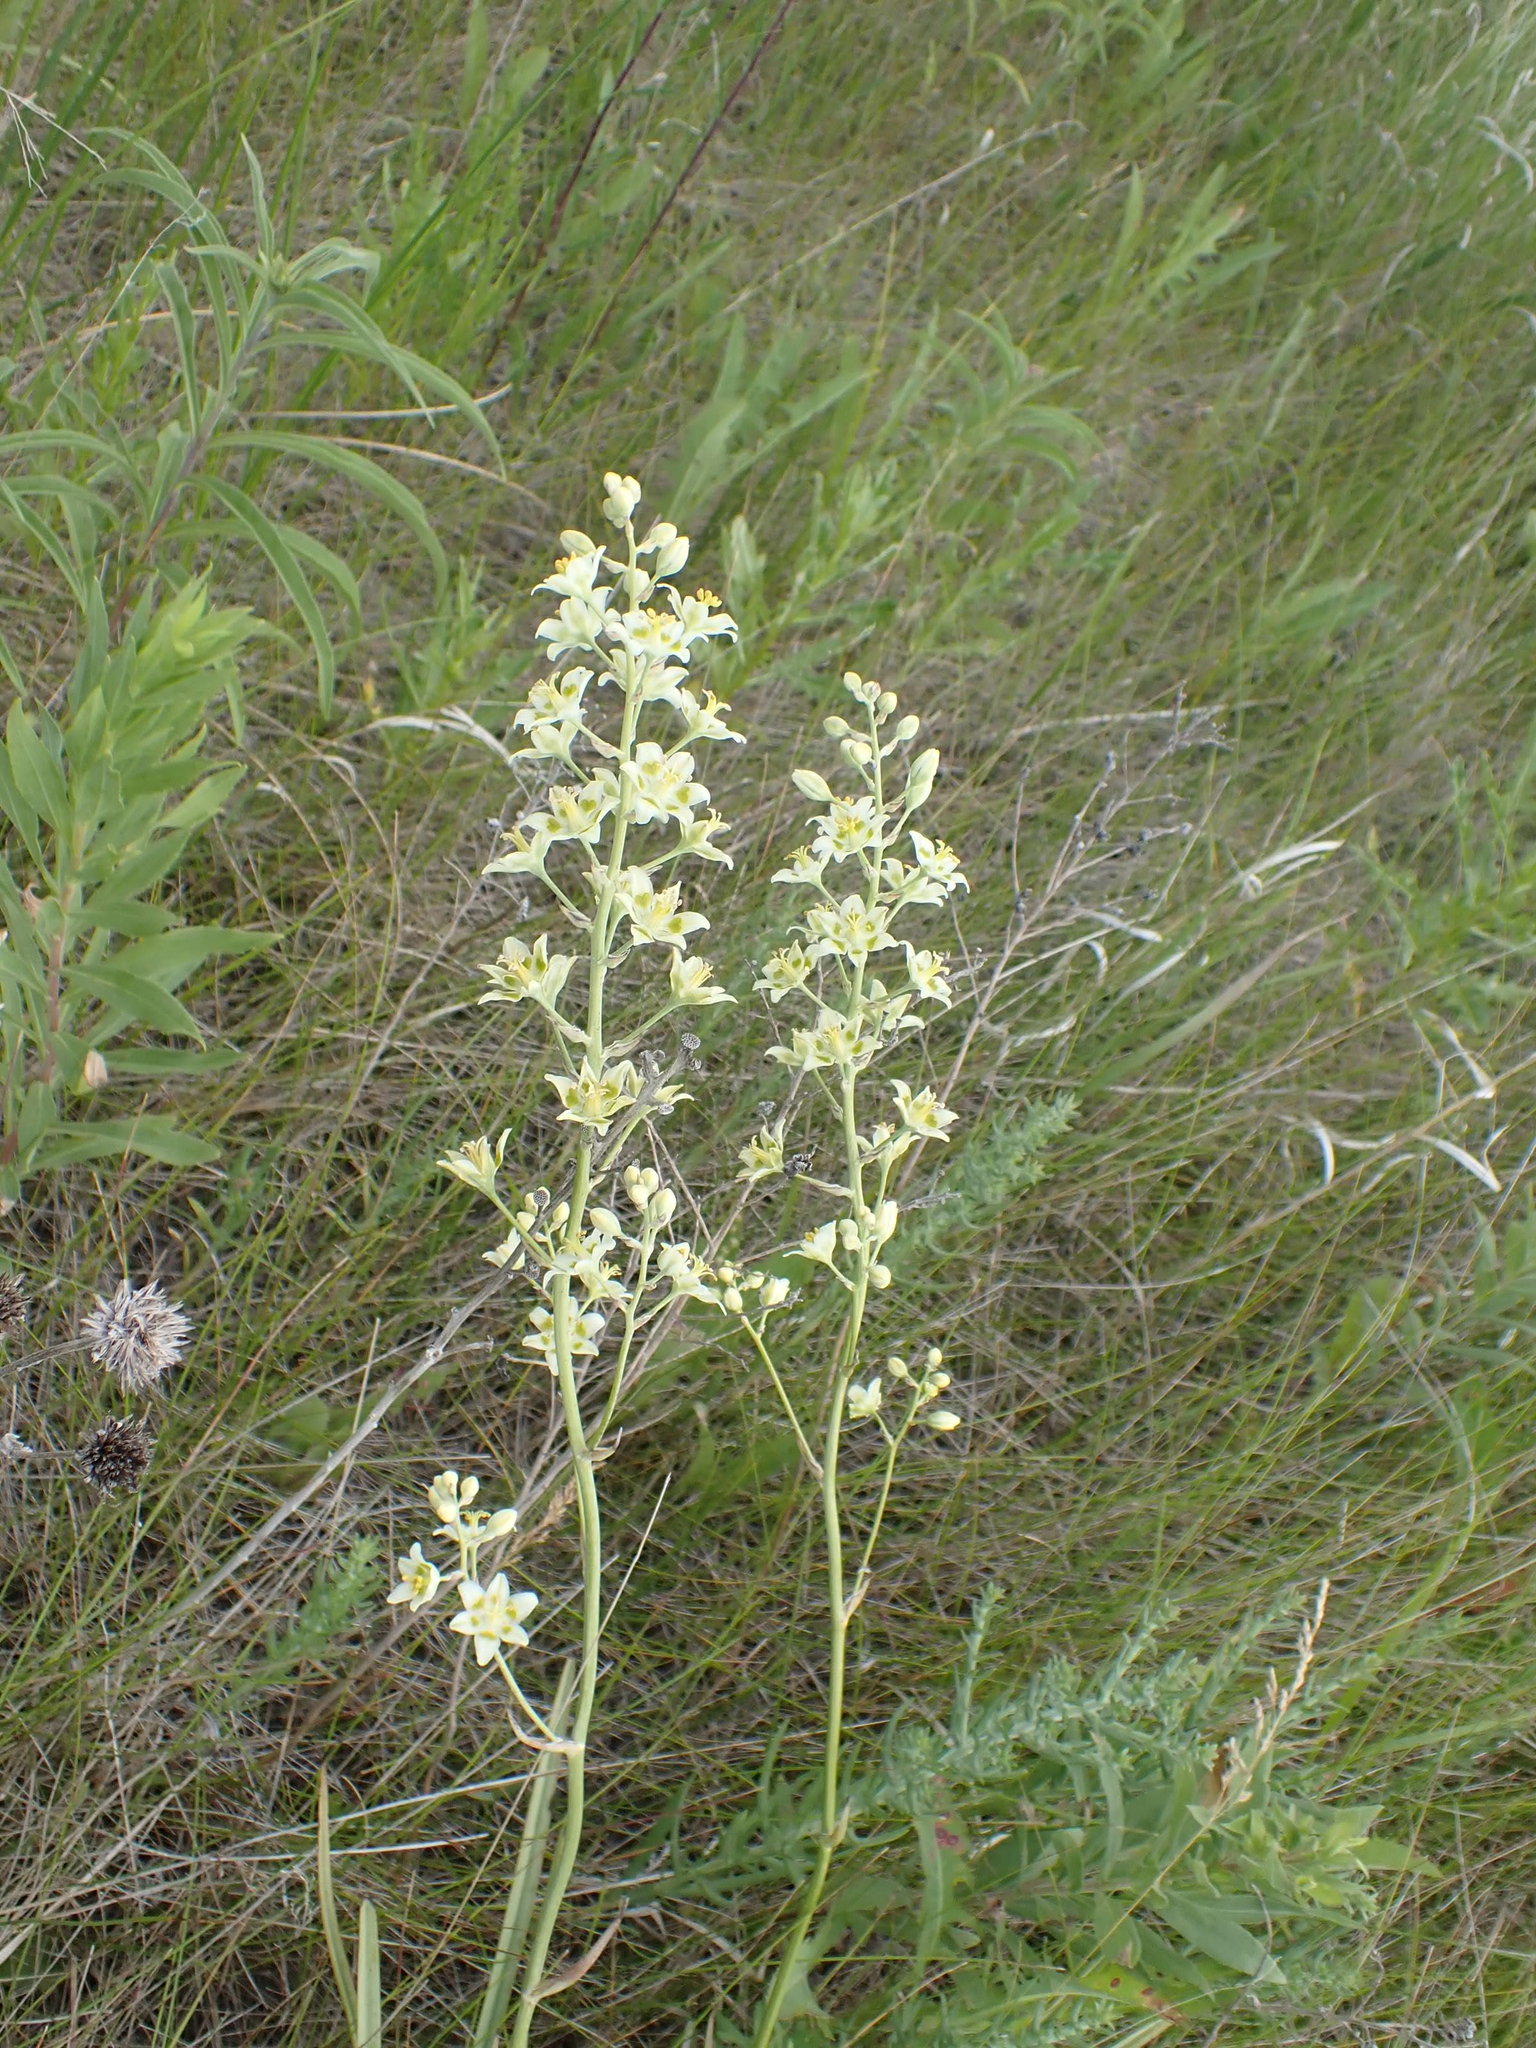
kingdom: Plantae
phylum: Tracheophyta
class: Liliopsida
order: Liliales
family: Melanthiaceae
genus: Anticlea
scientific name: Anticlea elegans
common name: Mountain death camas
